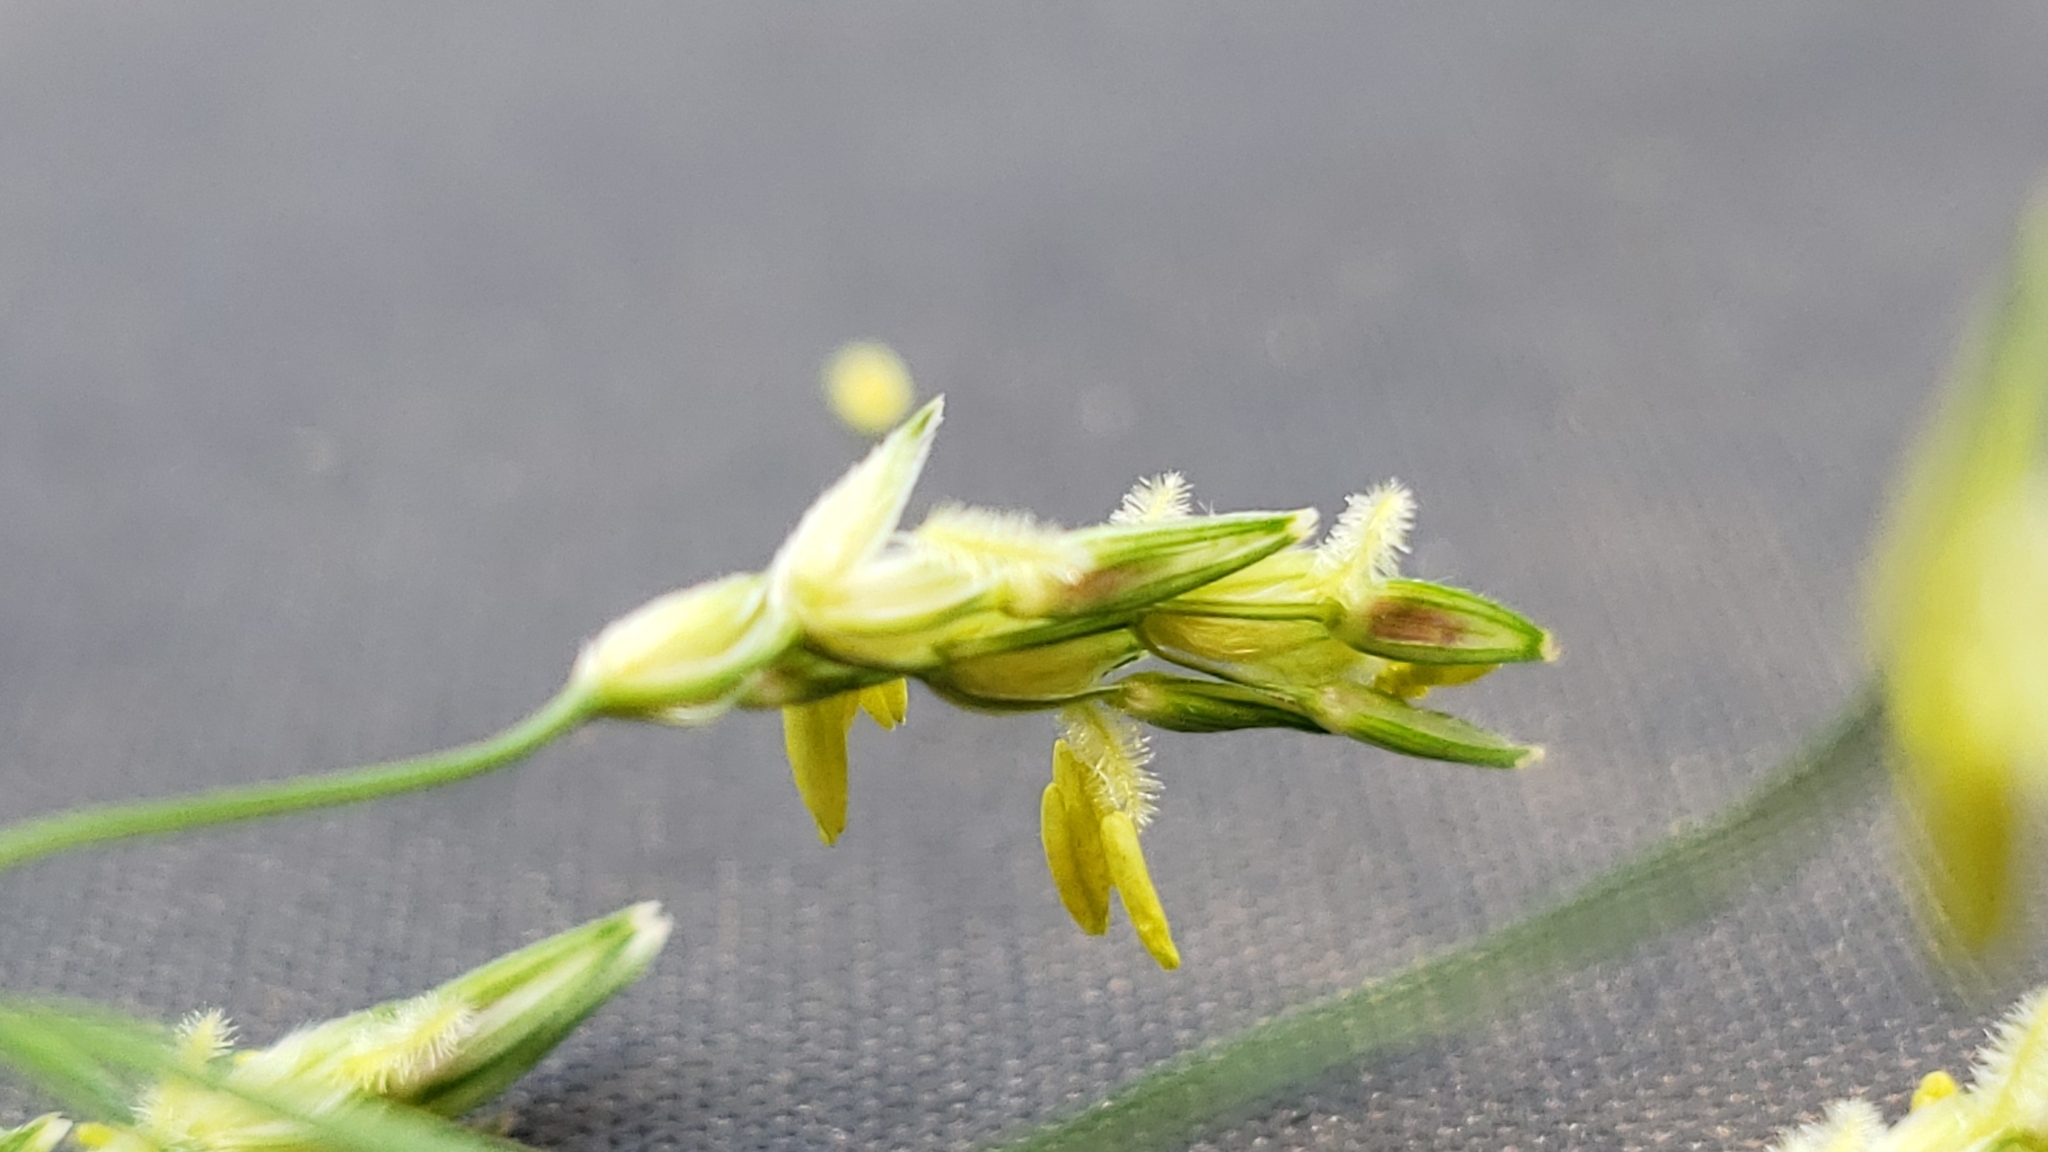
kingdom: Plantae
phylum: Tracheophyta
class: Liliopsida
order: Poales
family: Poaceae
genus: Sorghum
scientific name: Sorghum halepense
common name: Johnson-grass
